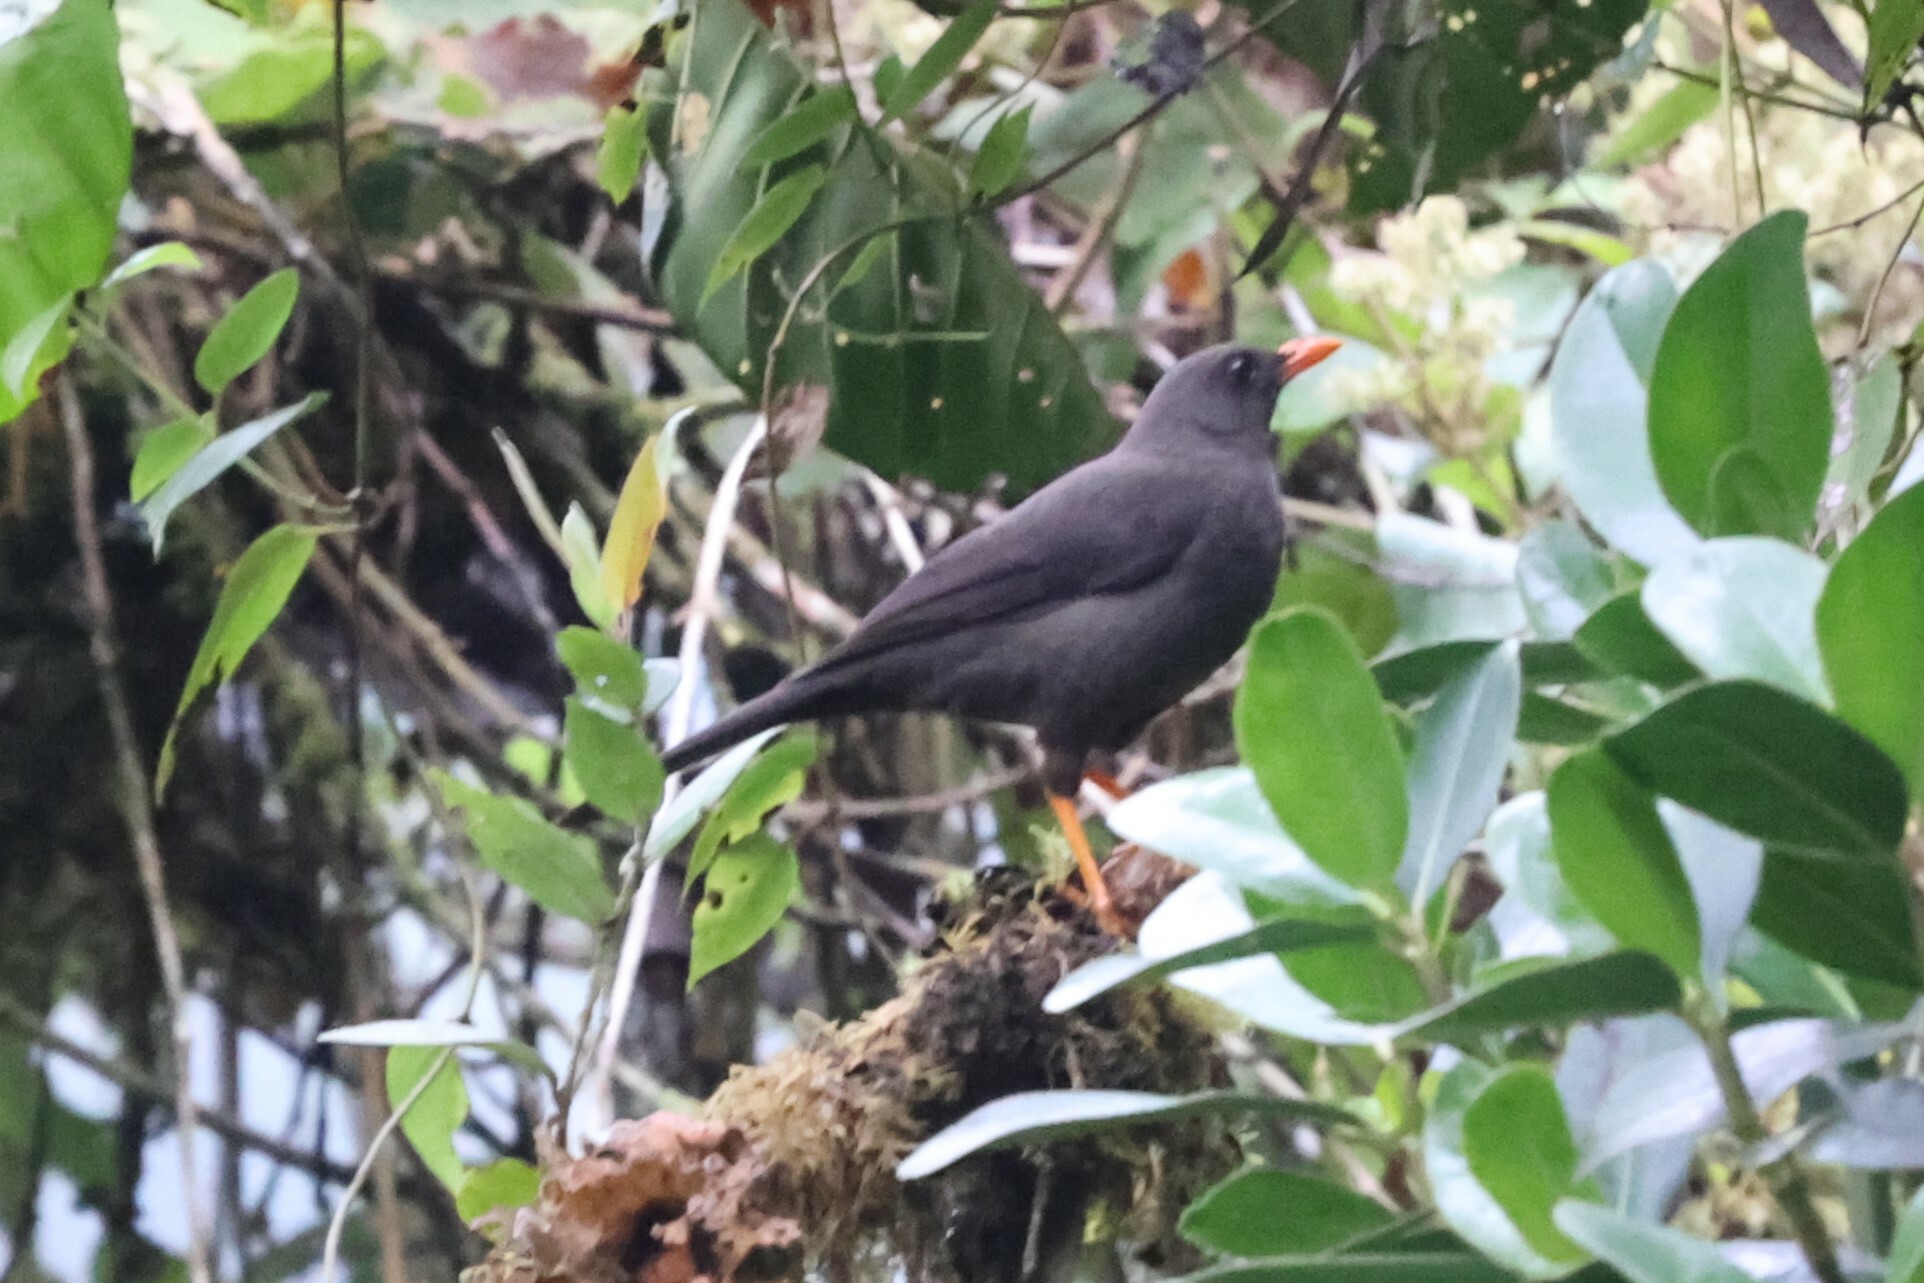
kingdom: Animalia
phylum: Chordata
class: Aves
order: Passeriformes
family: Turdidae
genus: Turdus
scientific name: Turdus fuscater
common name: Great thrush
